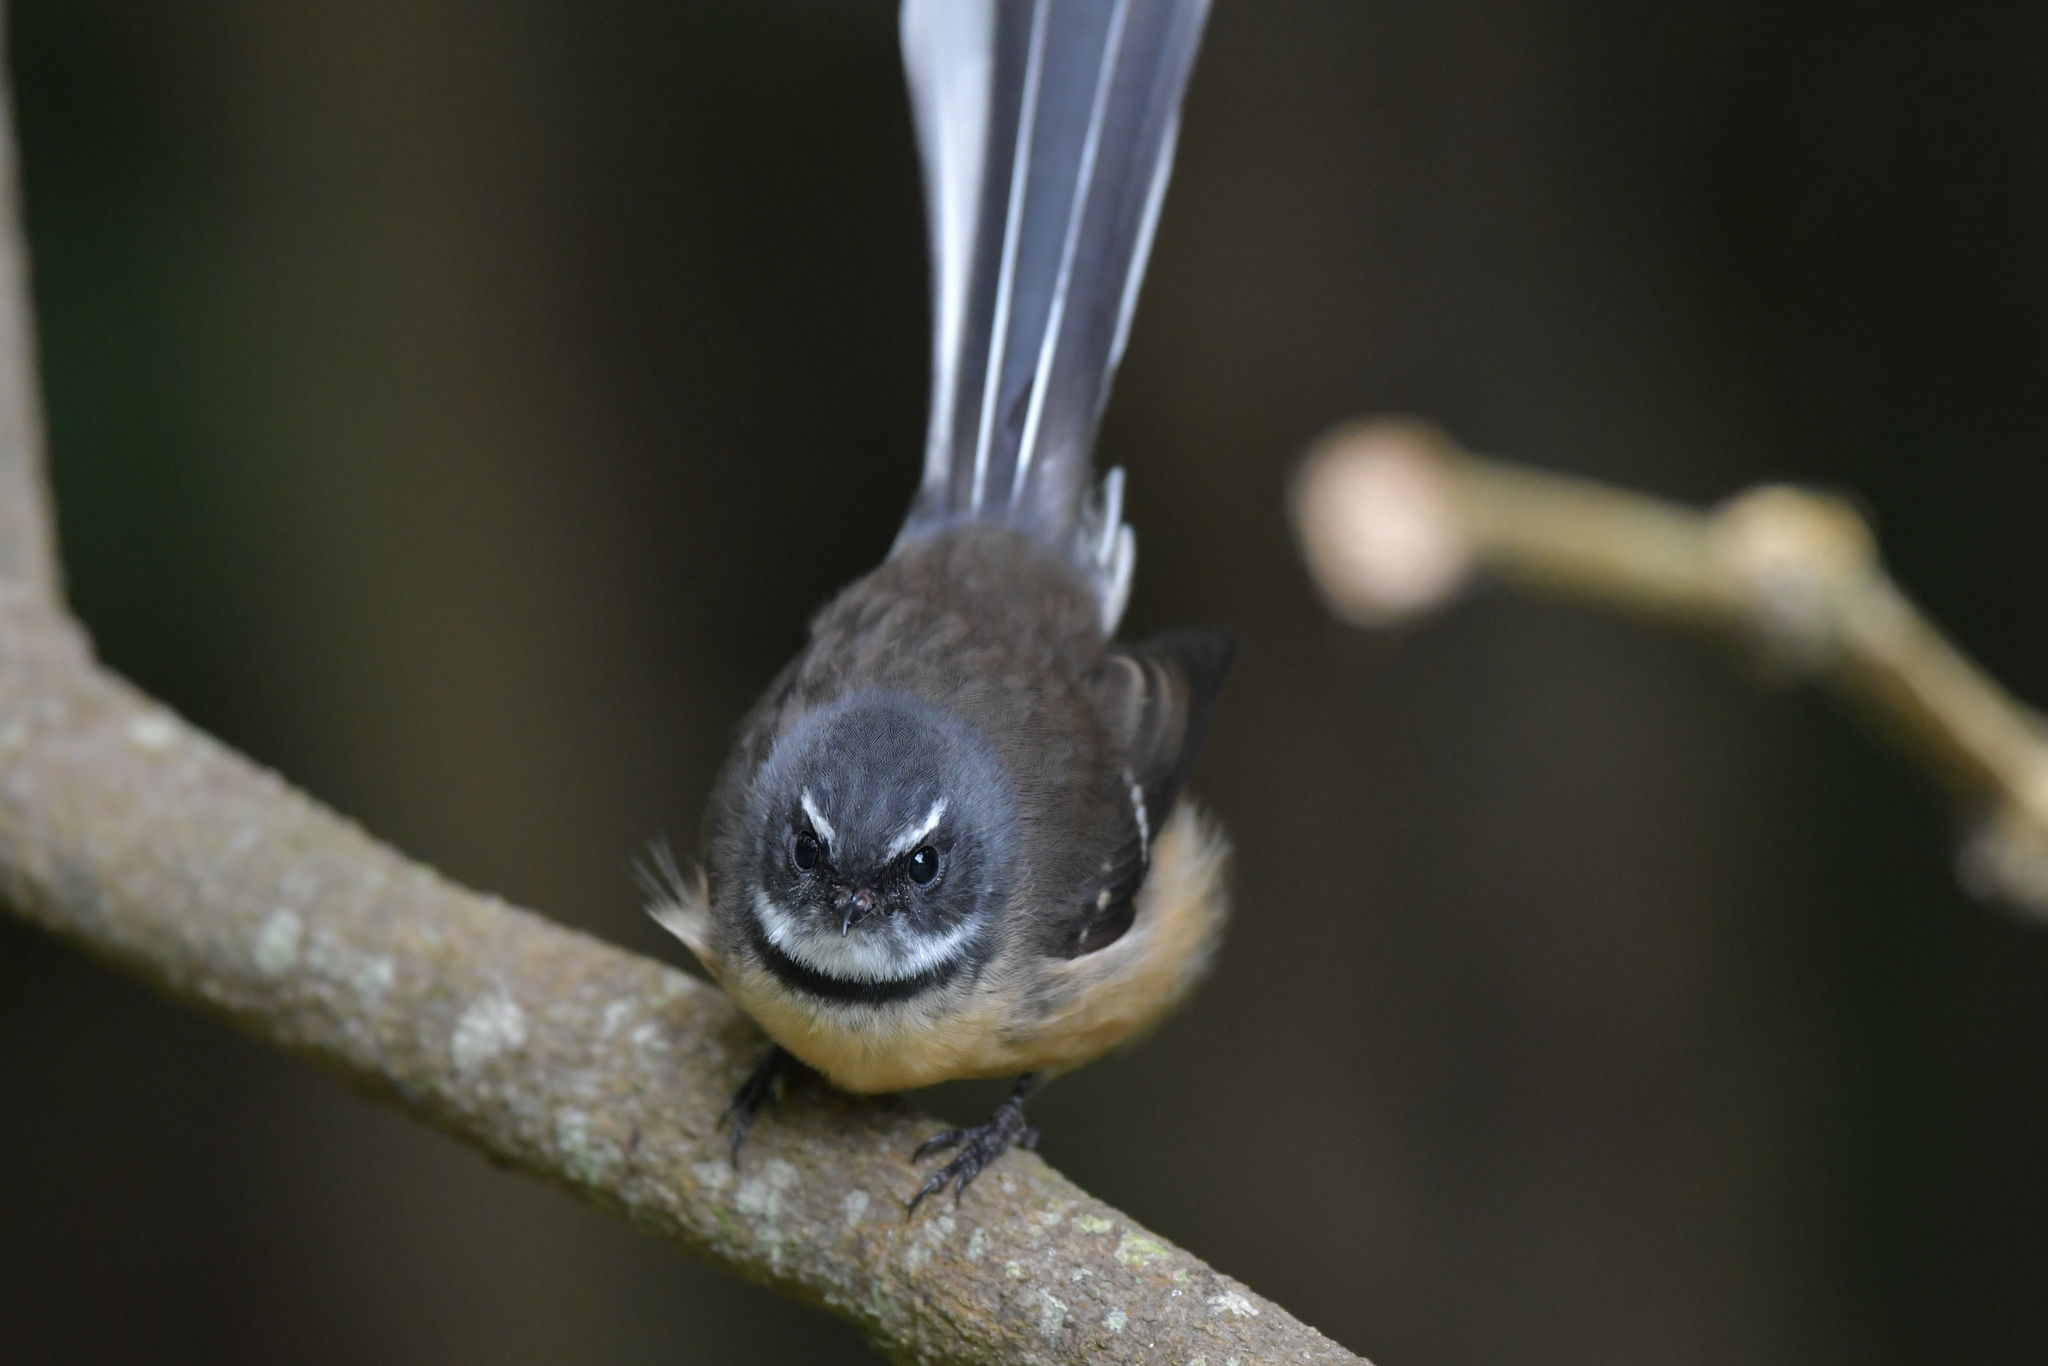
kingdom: Animalia
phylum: Chordata
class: Aves
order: Passeriformes
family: Rhipiduridae
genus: Rhipidura
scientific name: Rhipidura fuliginosa
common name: New zealand fantail
